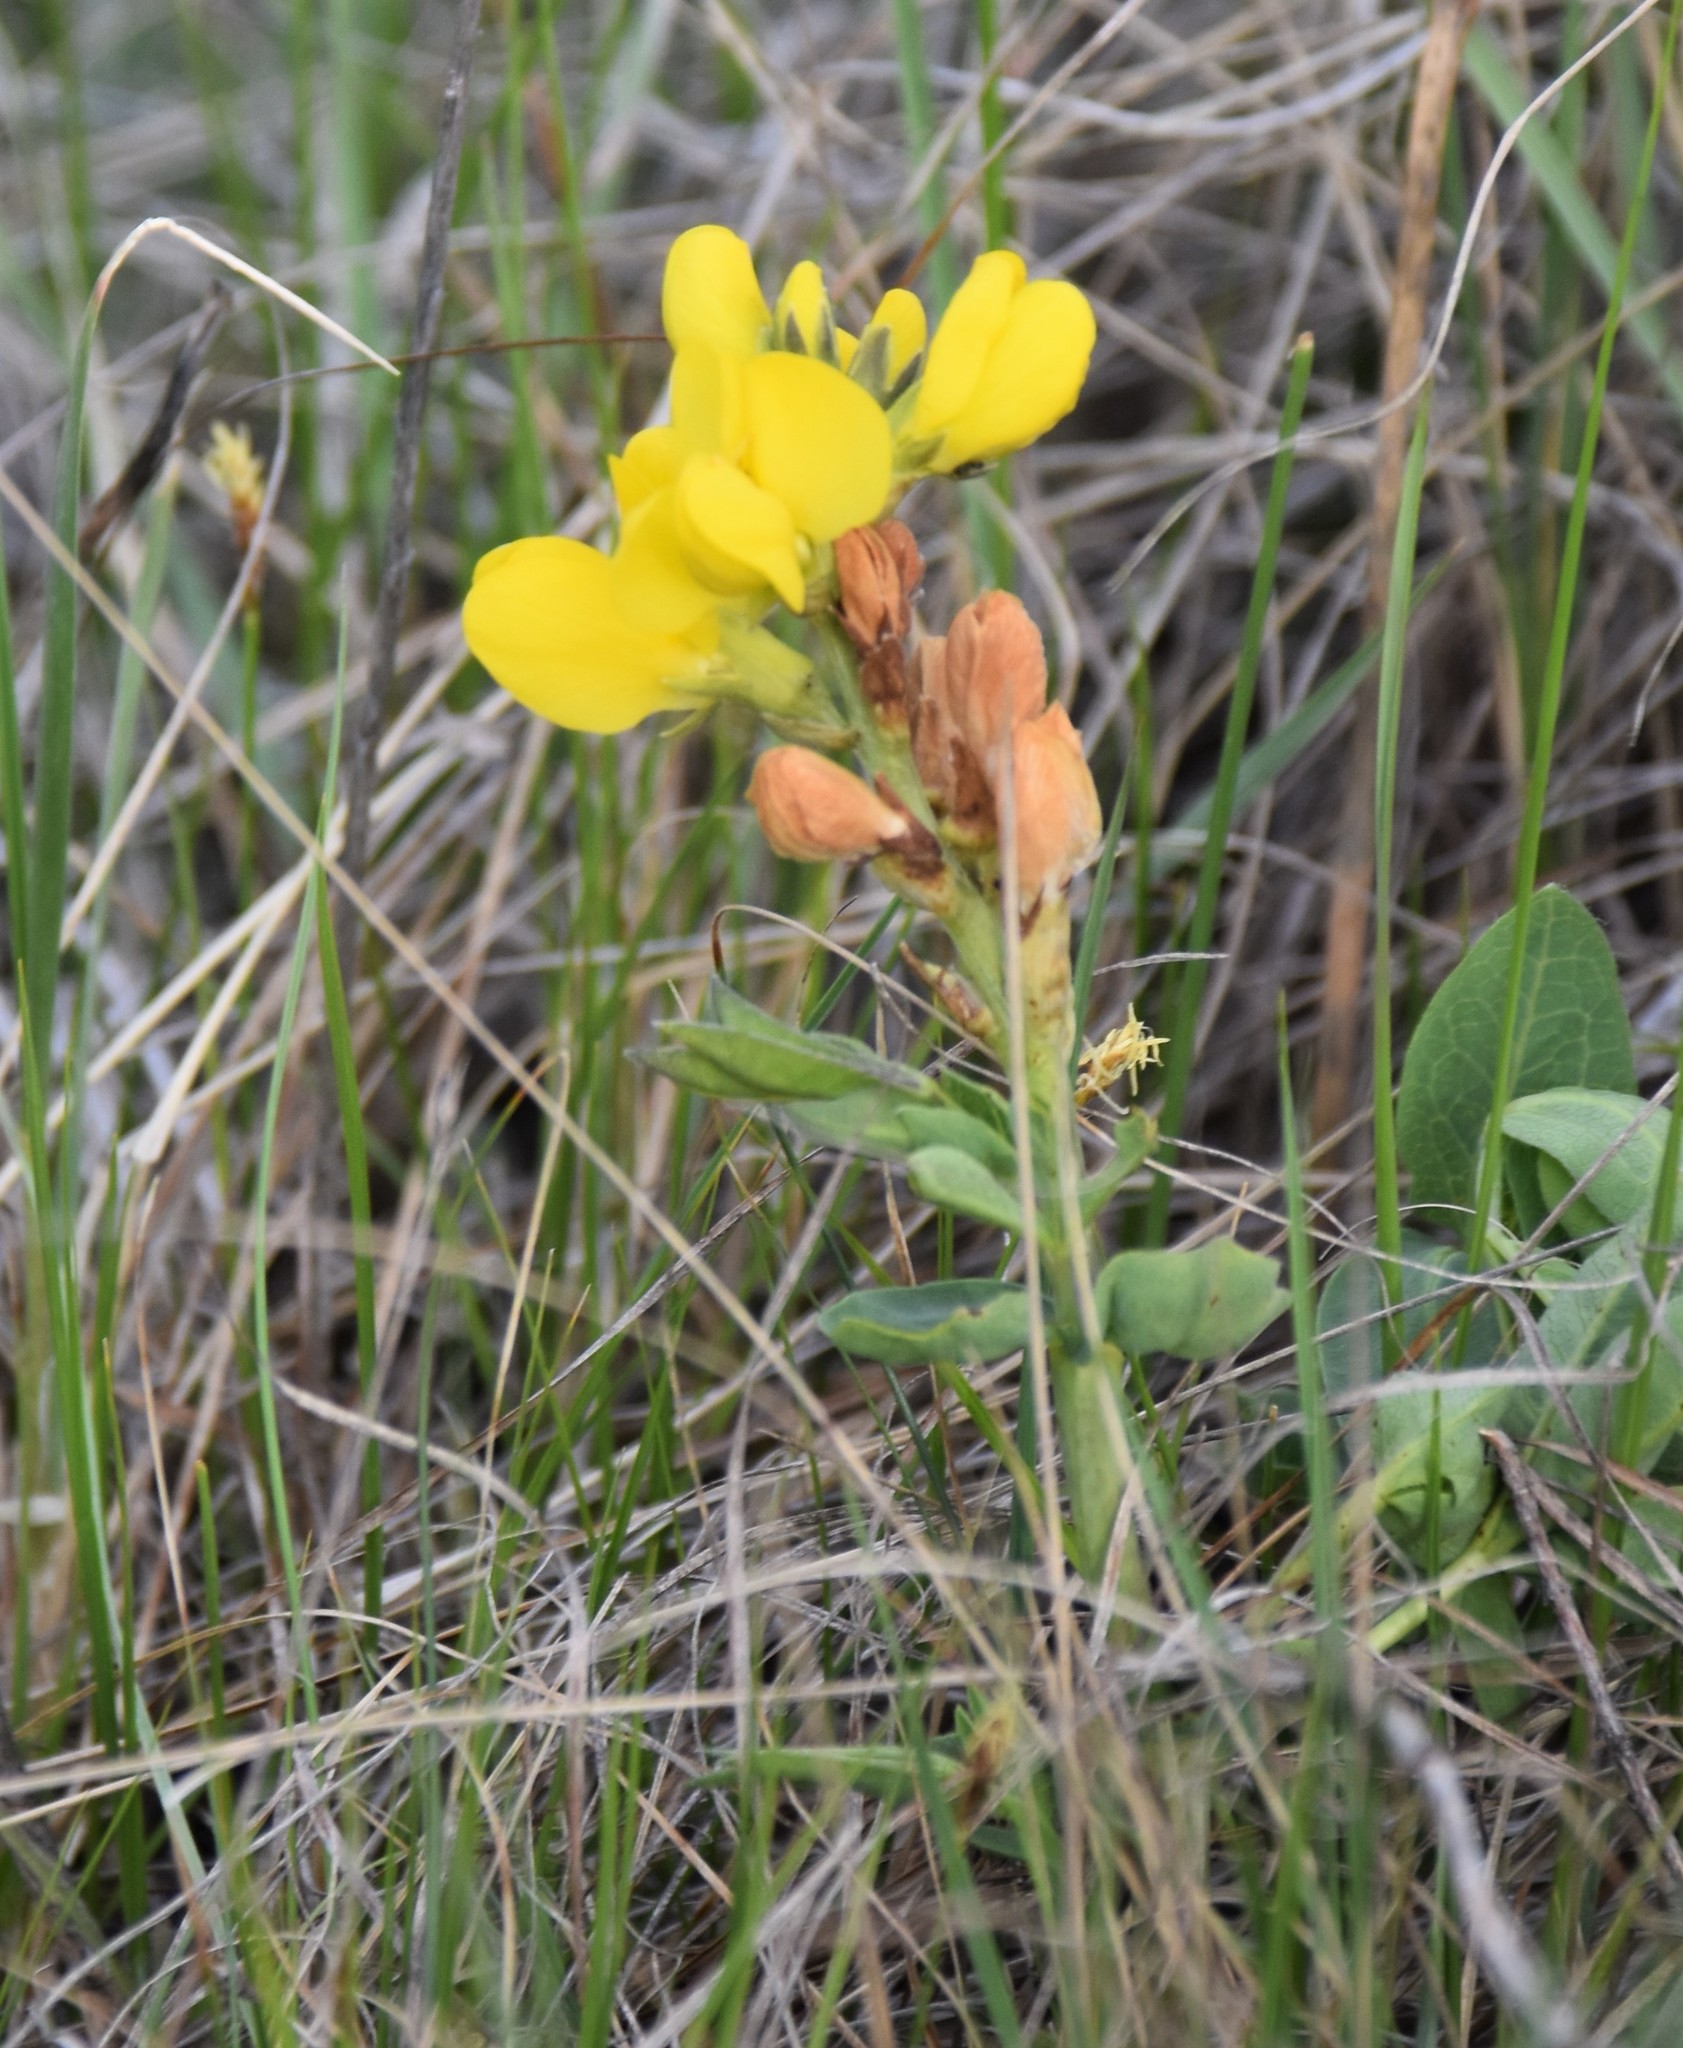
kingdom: Plantae
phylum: Tracheophyta
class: Magnoliopsida
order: Fabales
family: Fabaceae
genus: Thermopsis
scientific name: Thermopsis rhombifolia
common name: Circle-pod-pea
